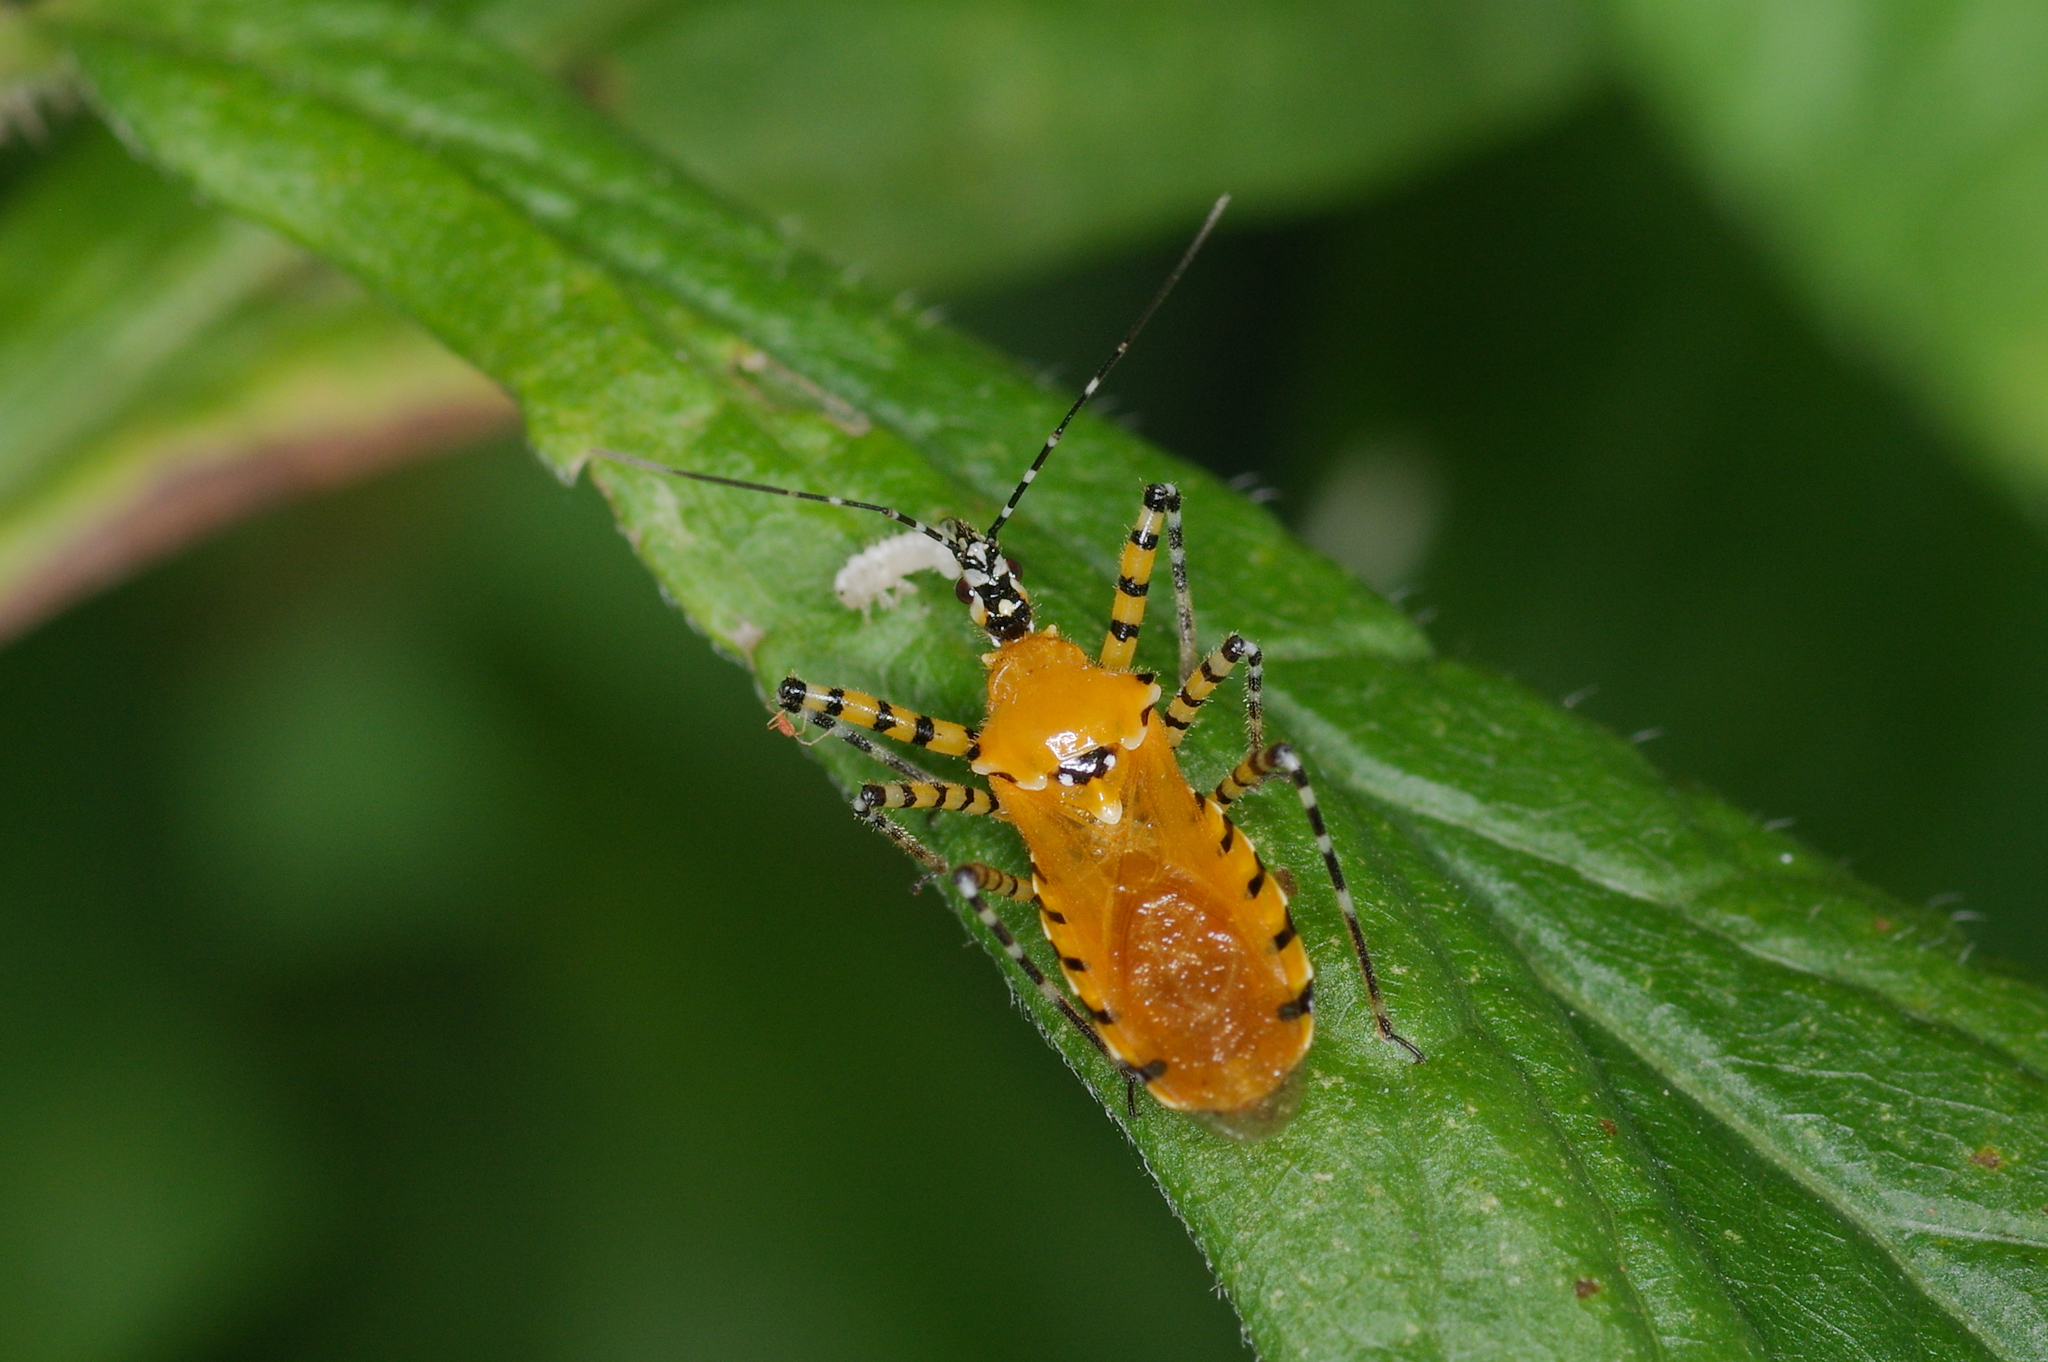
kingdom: Animalia
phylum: Arthropoda
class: Insecta
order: Hemiptera
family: Reduviidae
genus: Pselliopus
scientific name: Pselliopus barberi
